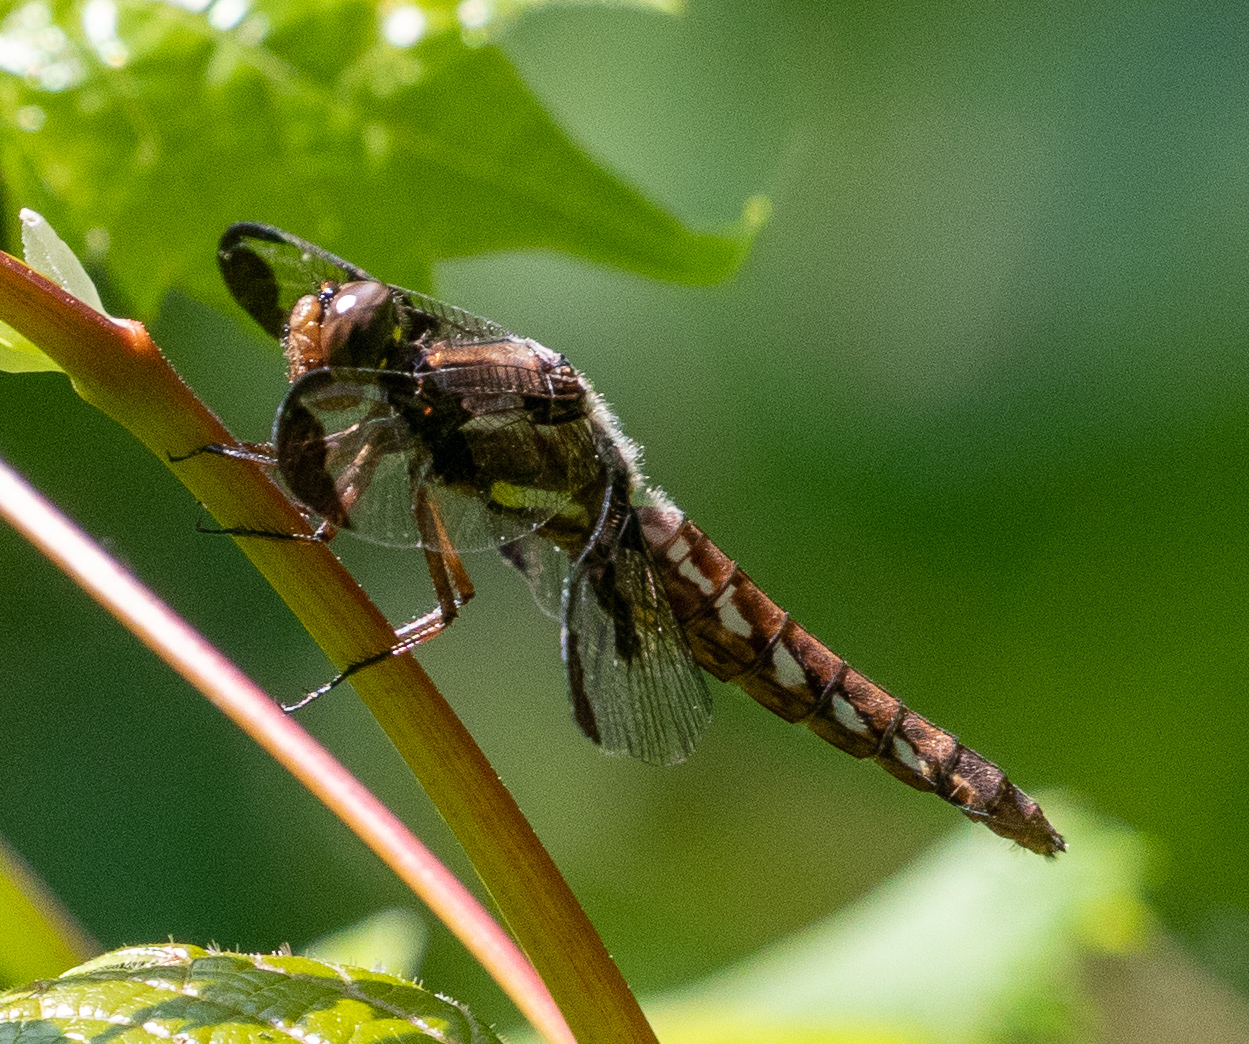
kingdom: Animalia
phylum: Arthropoda
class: Insecta
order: Odonata
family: Libellulidae
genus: Plathemis
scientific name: Plathemis lydia
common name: Common whitetail
